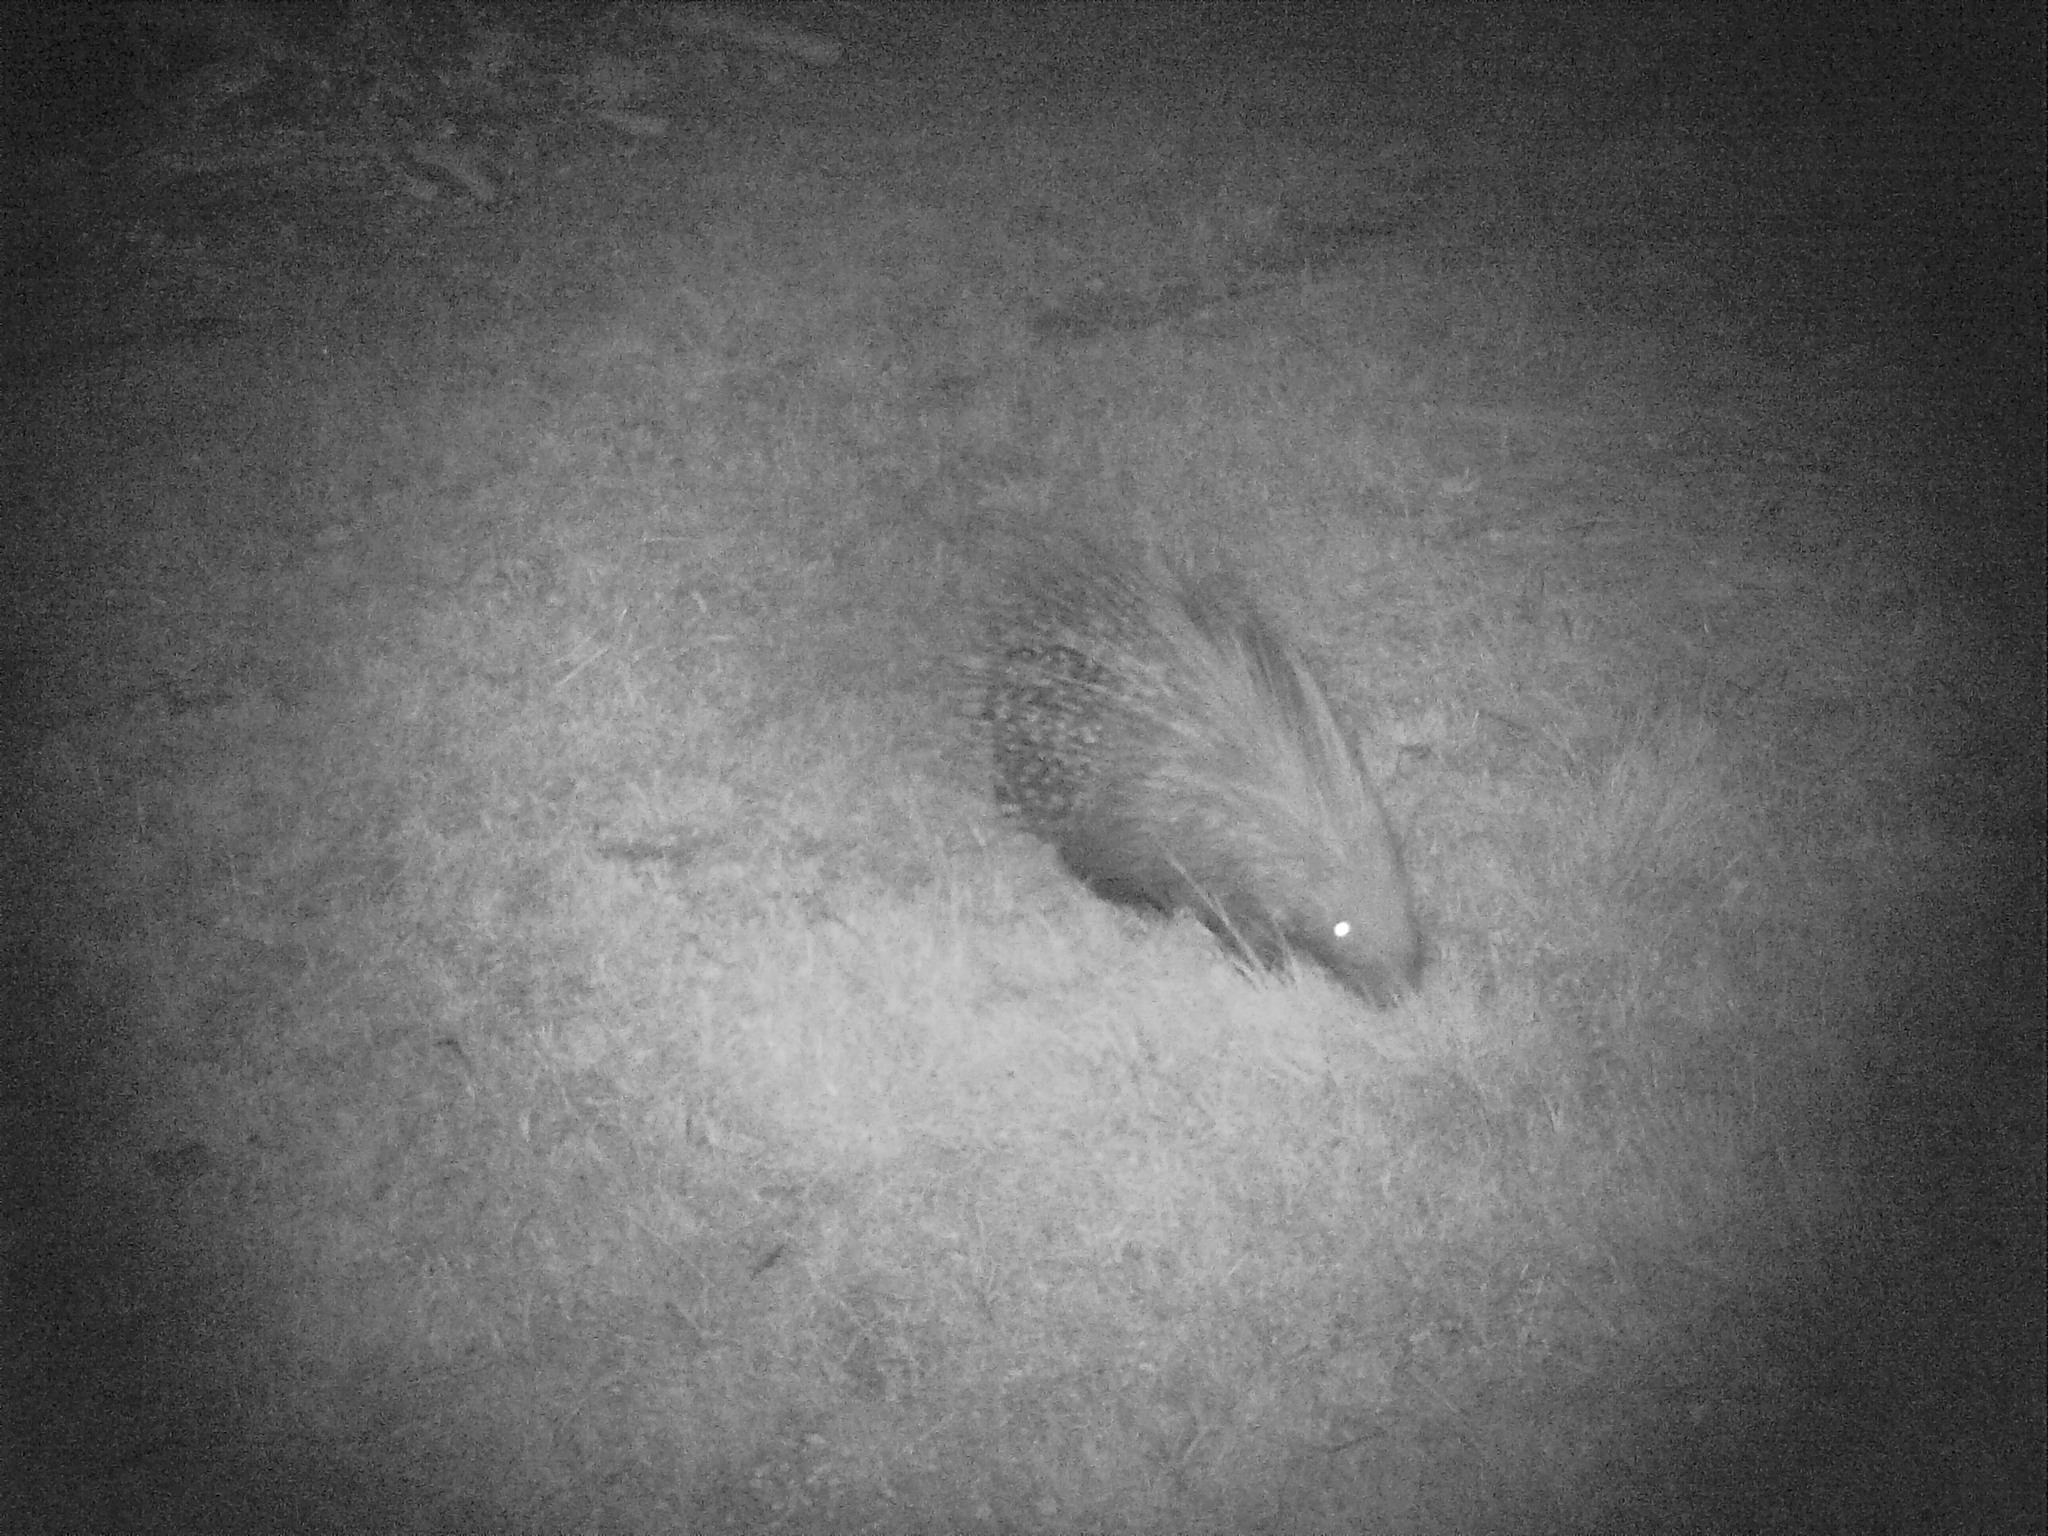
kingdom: Animalia
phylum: Chordata
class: Mammalia
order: Rodentia
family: Hystricidae
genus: Hystrix
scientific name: Hystrix africaeaustralis
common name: Cape porcupine
